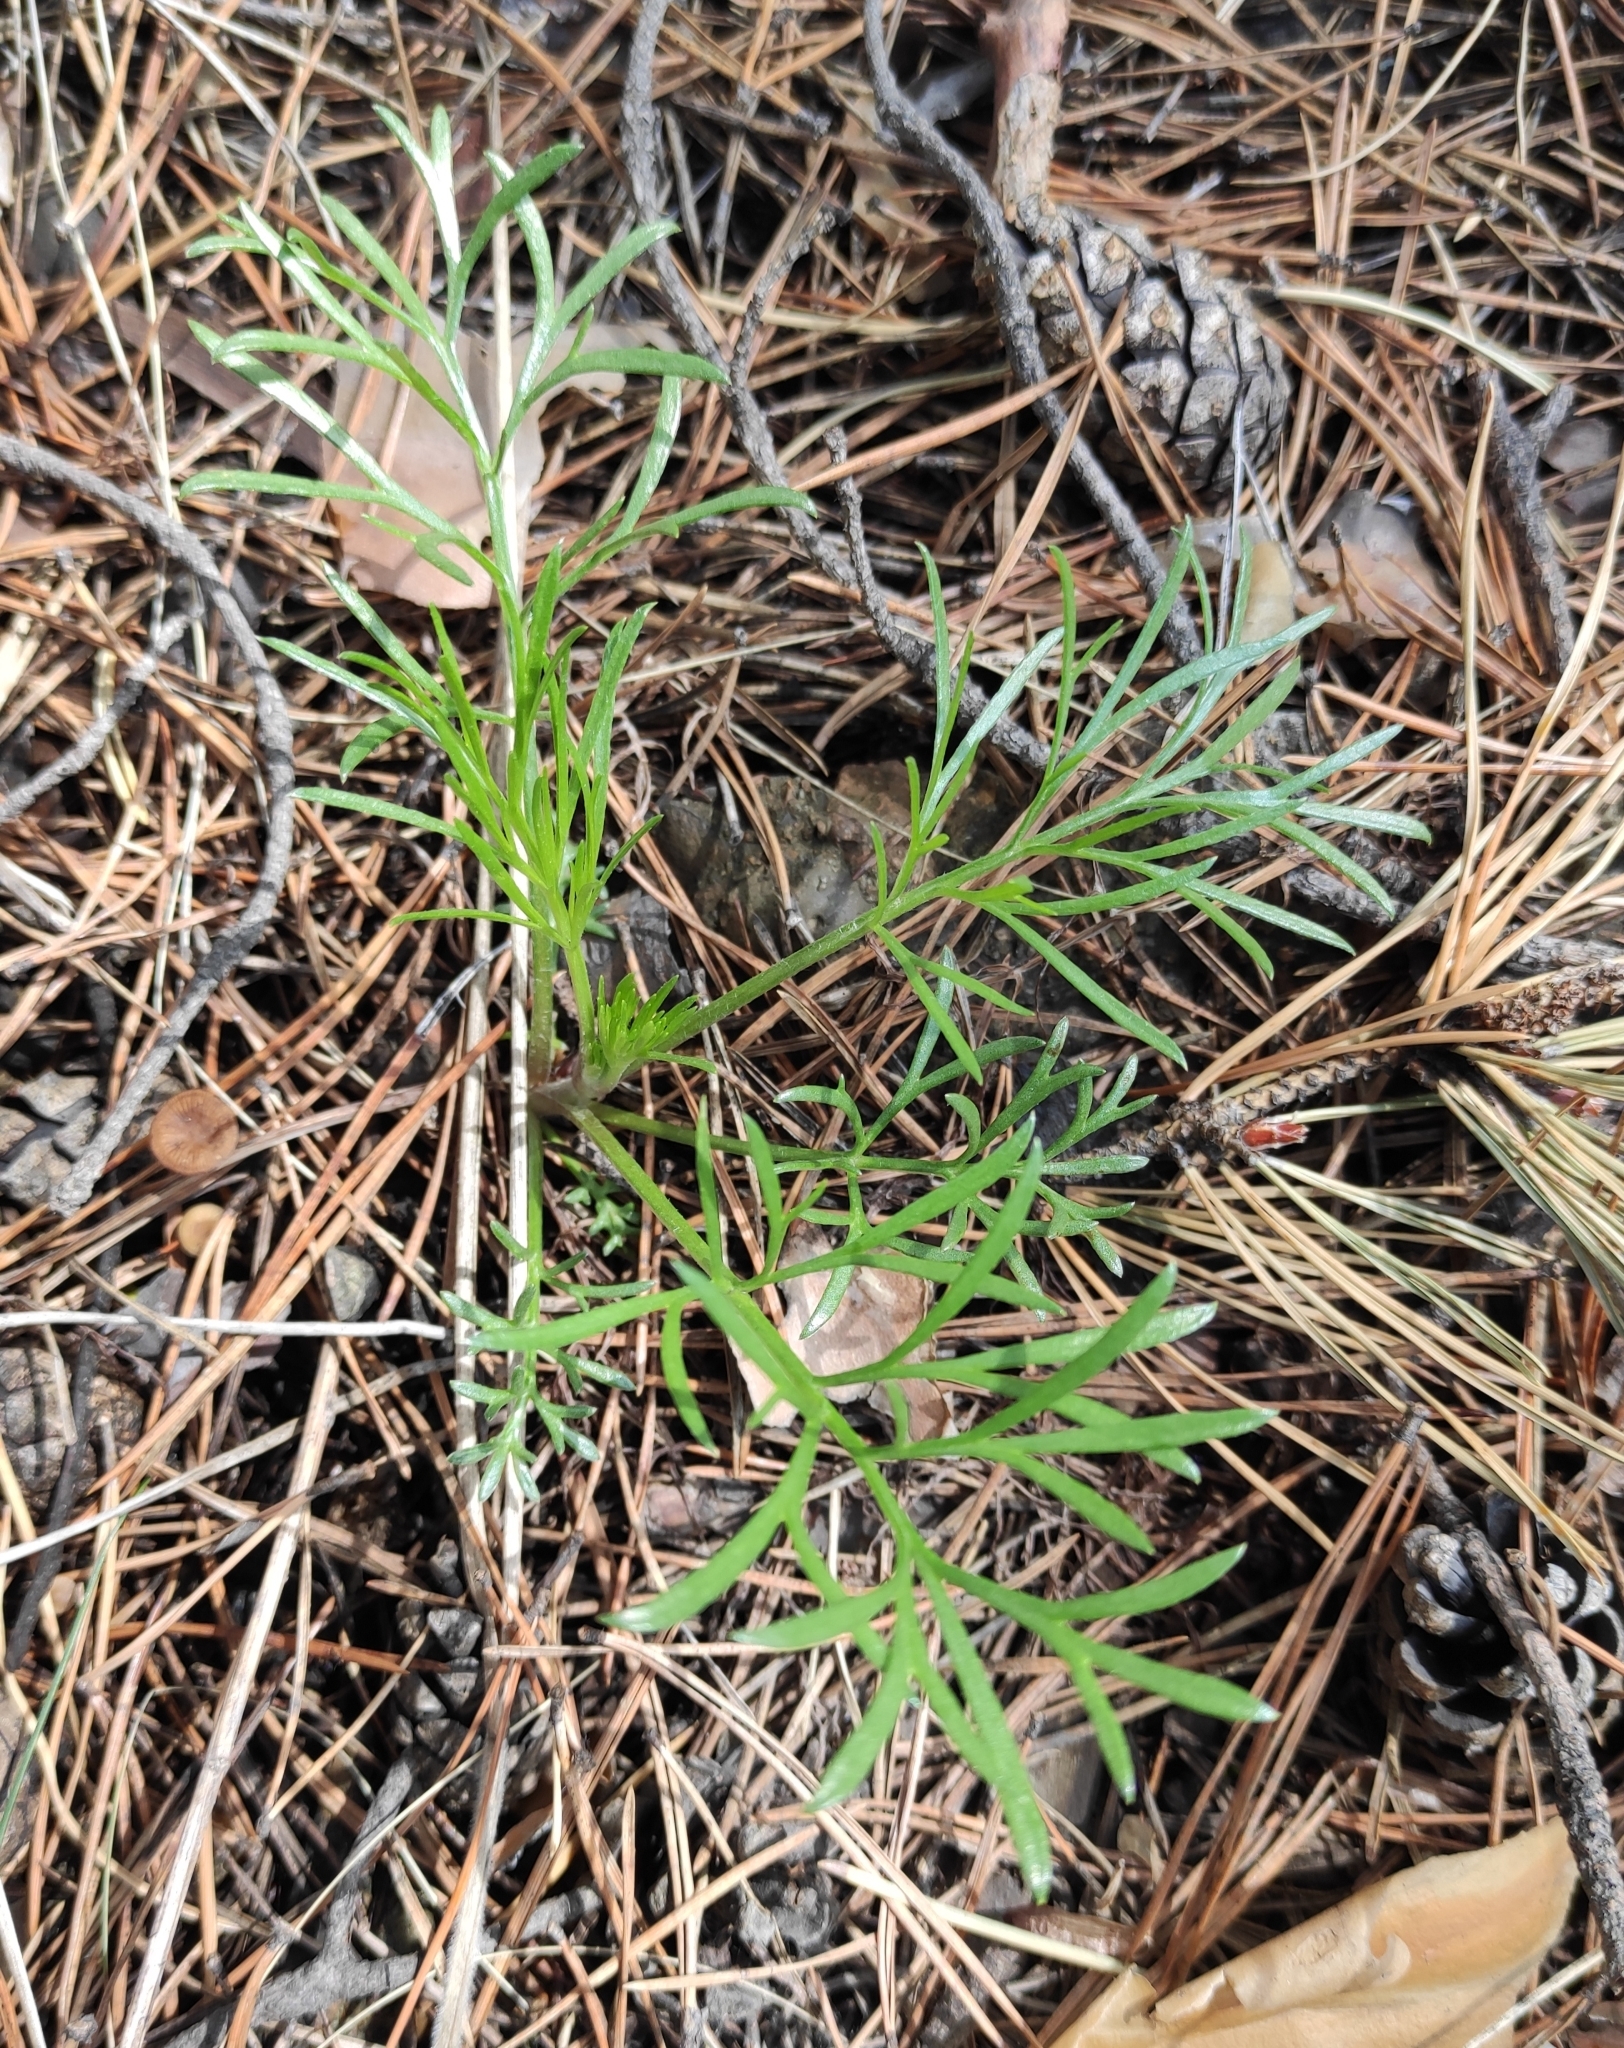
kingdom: Plantae
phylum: Tracheophyta
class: Magnoliopsida
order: Asterales
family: Asteraceae
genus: Artemisia
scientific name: Artemisia pubescens
